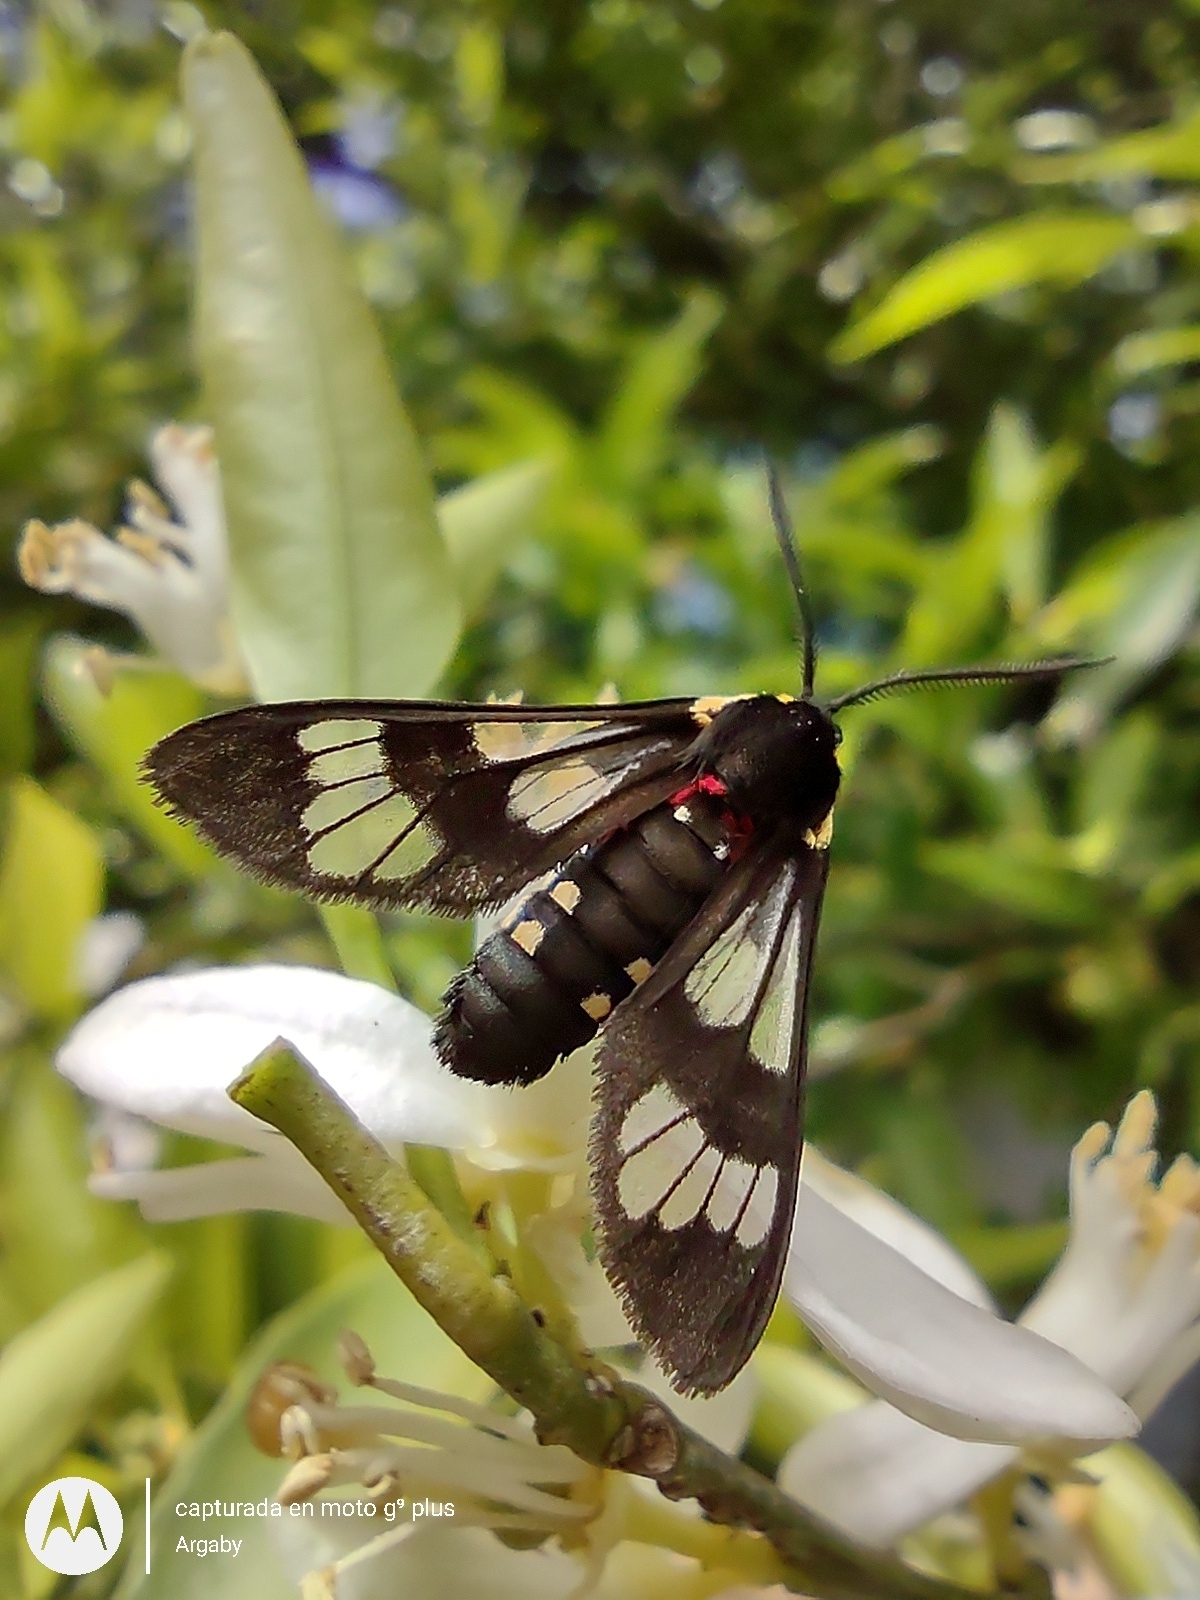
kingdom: Animalia
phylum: Arthropoda
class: Insecta
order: Lepidoptera
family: Erebidae
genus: Eurata
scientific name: Eurata hermione
